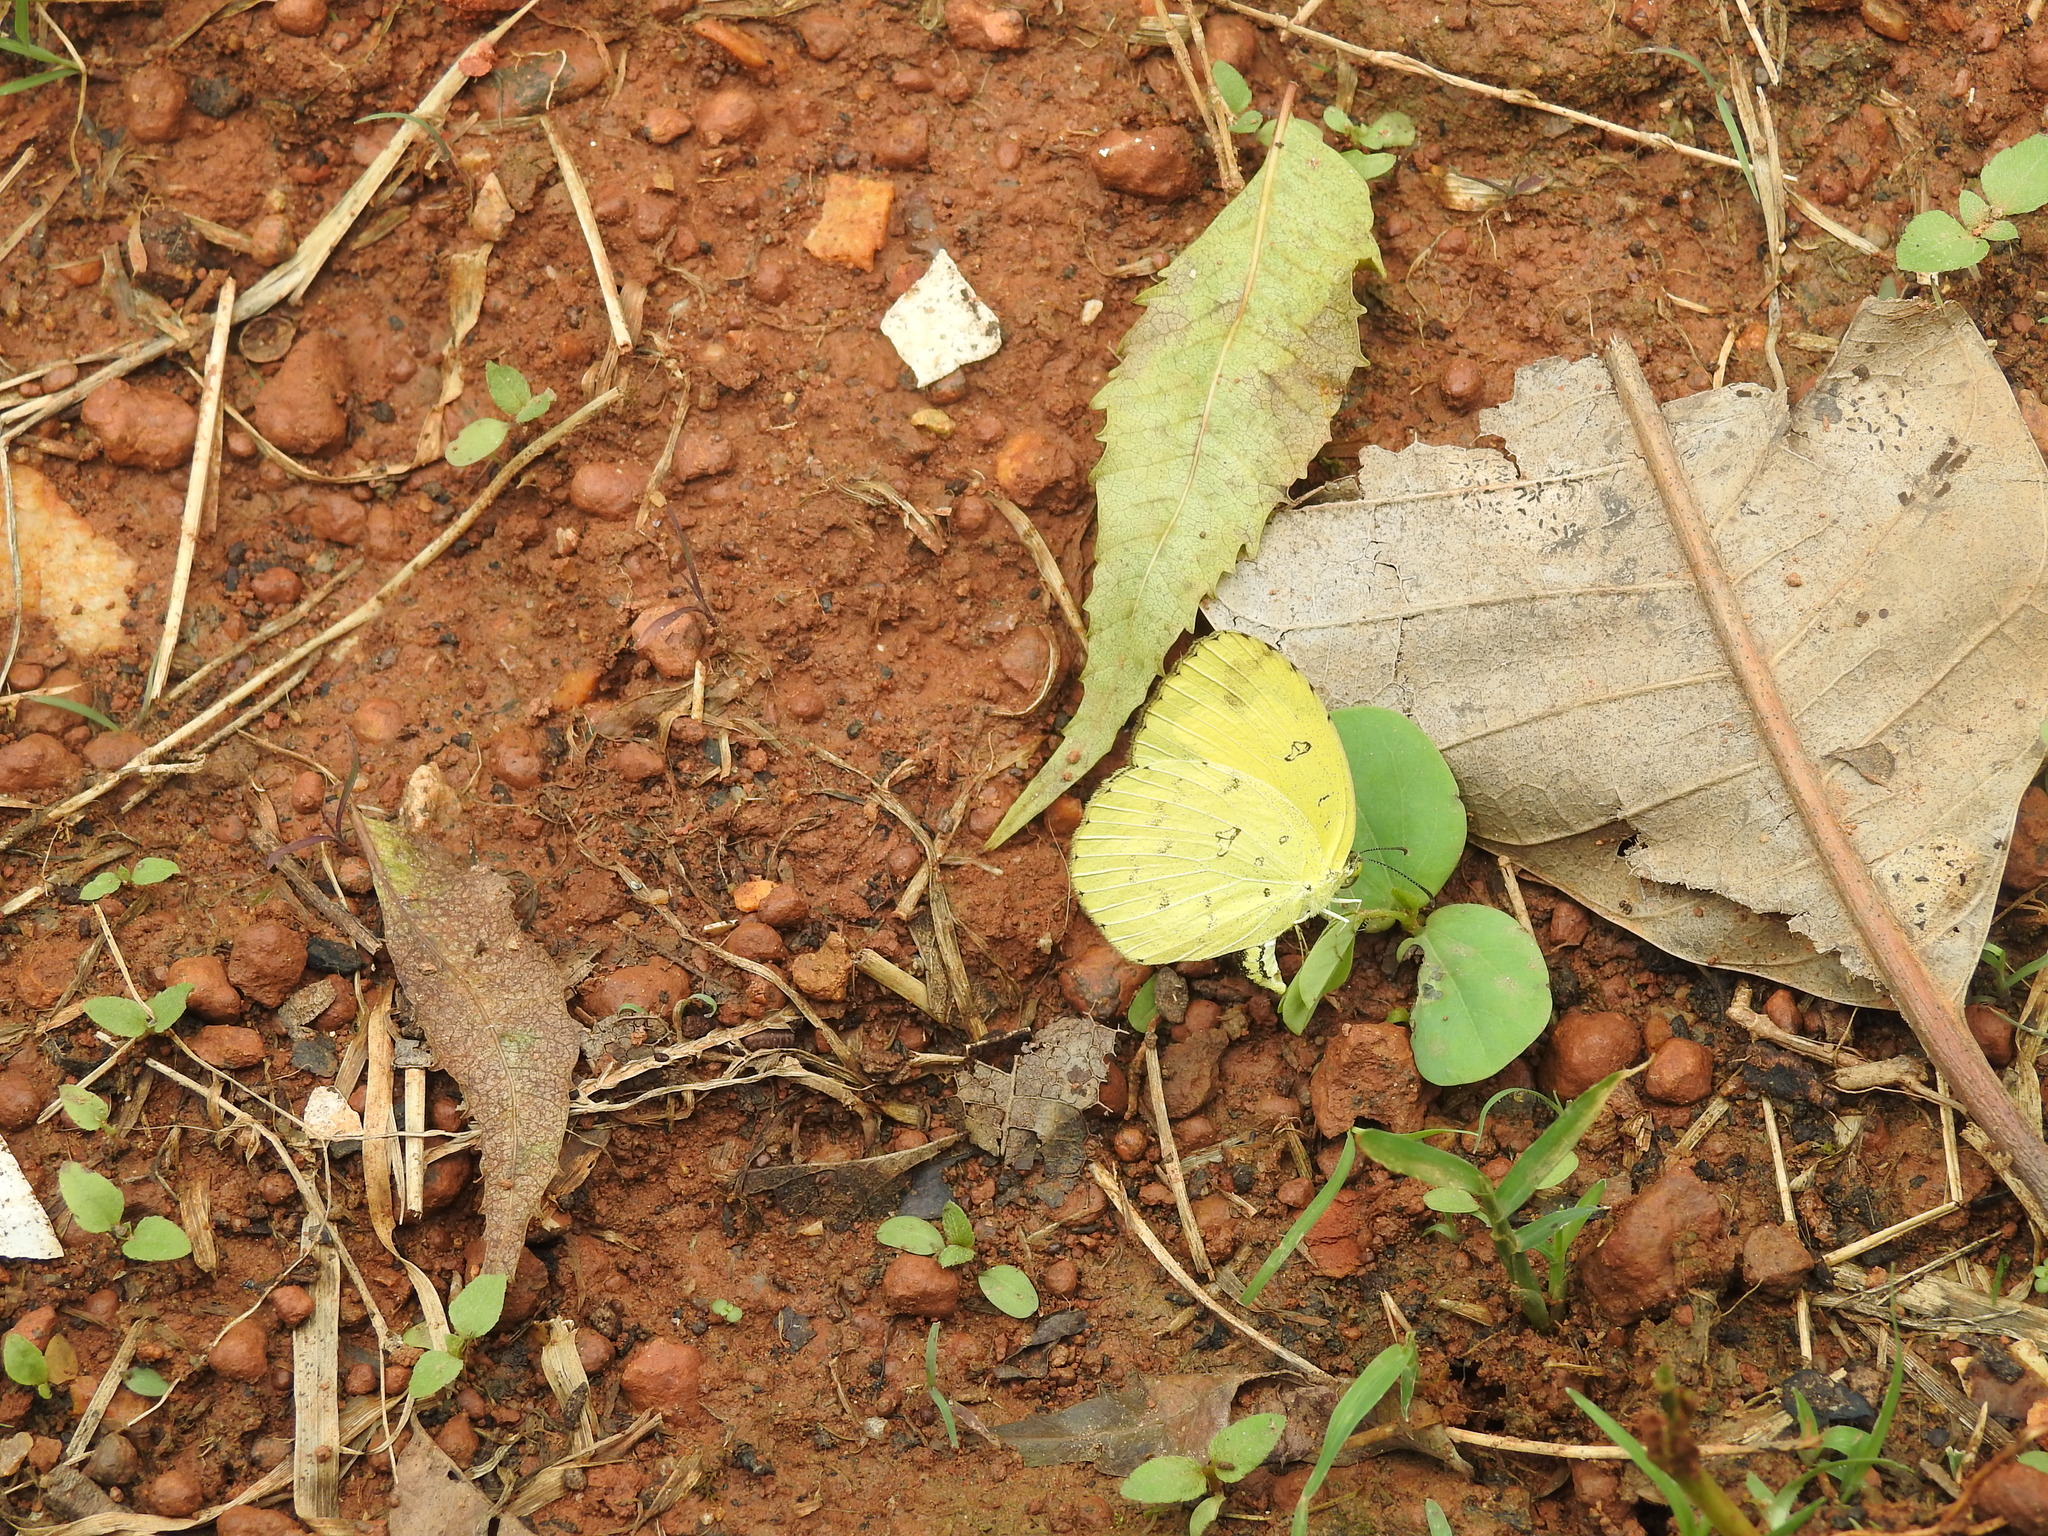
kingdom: Animalia
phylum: Arthropoda
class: Insecta
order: Lepidoptera
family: Pieridae
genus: Eurema
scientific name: Eurema hecabe
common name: Pale grass yellow
